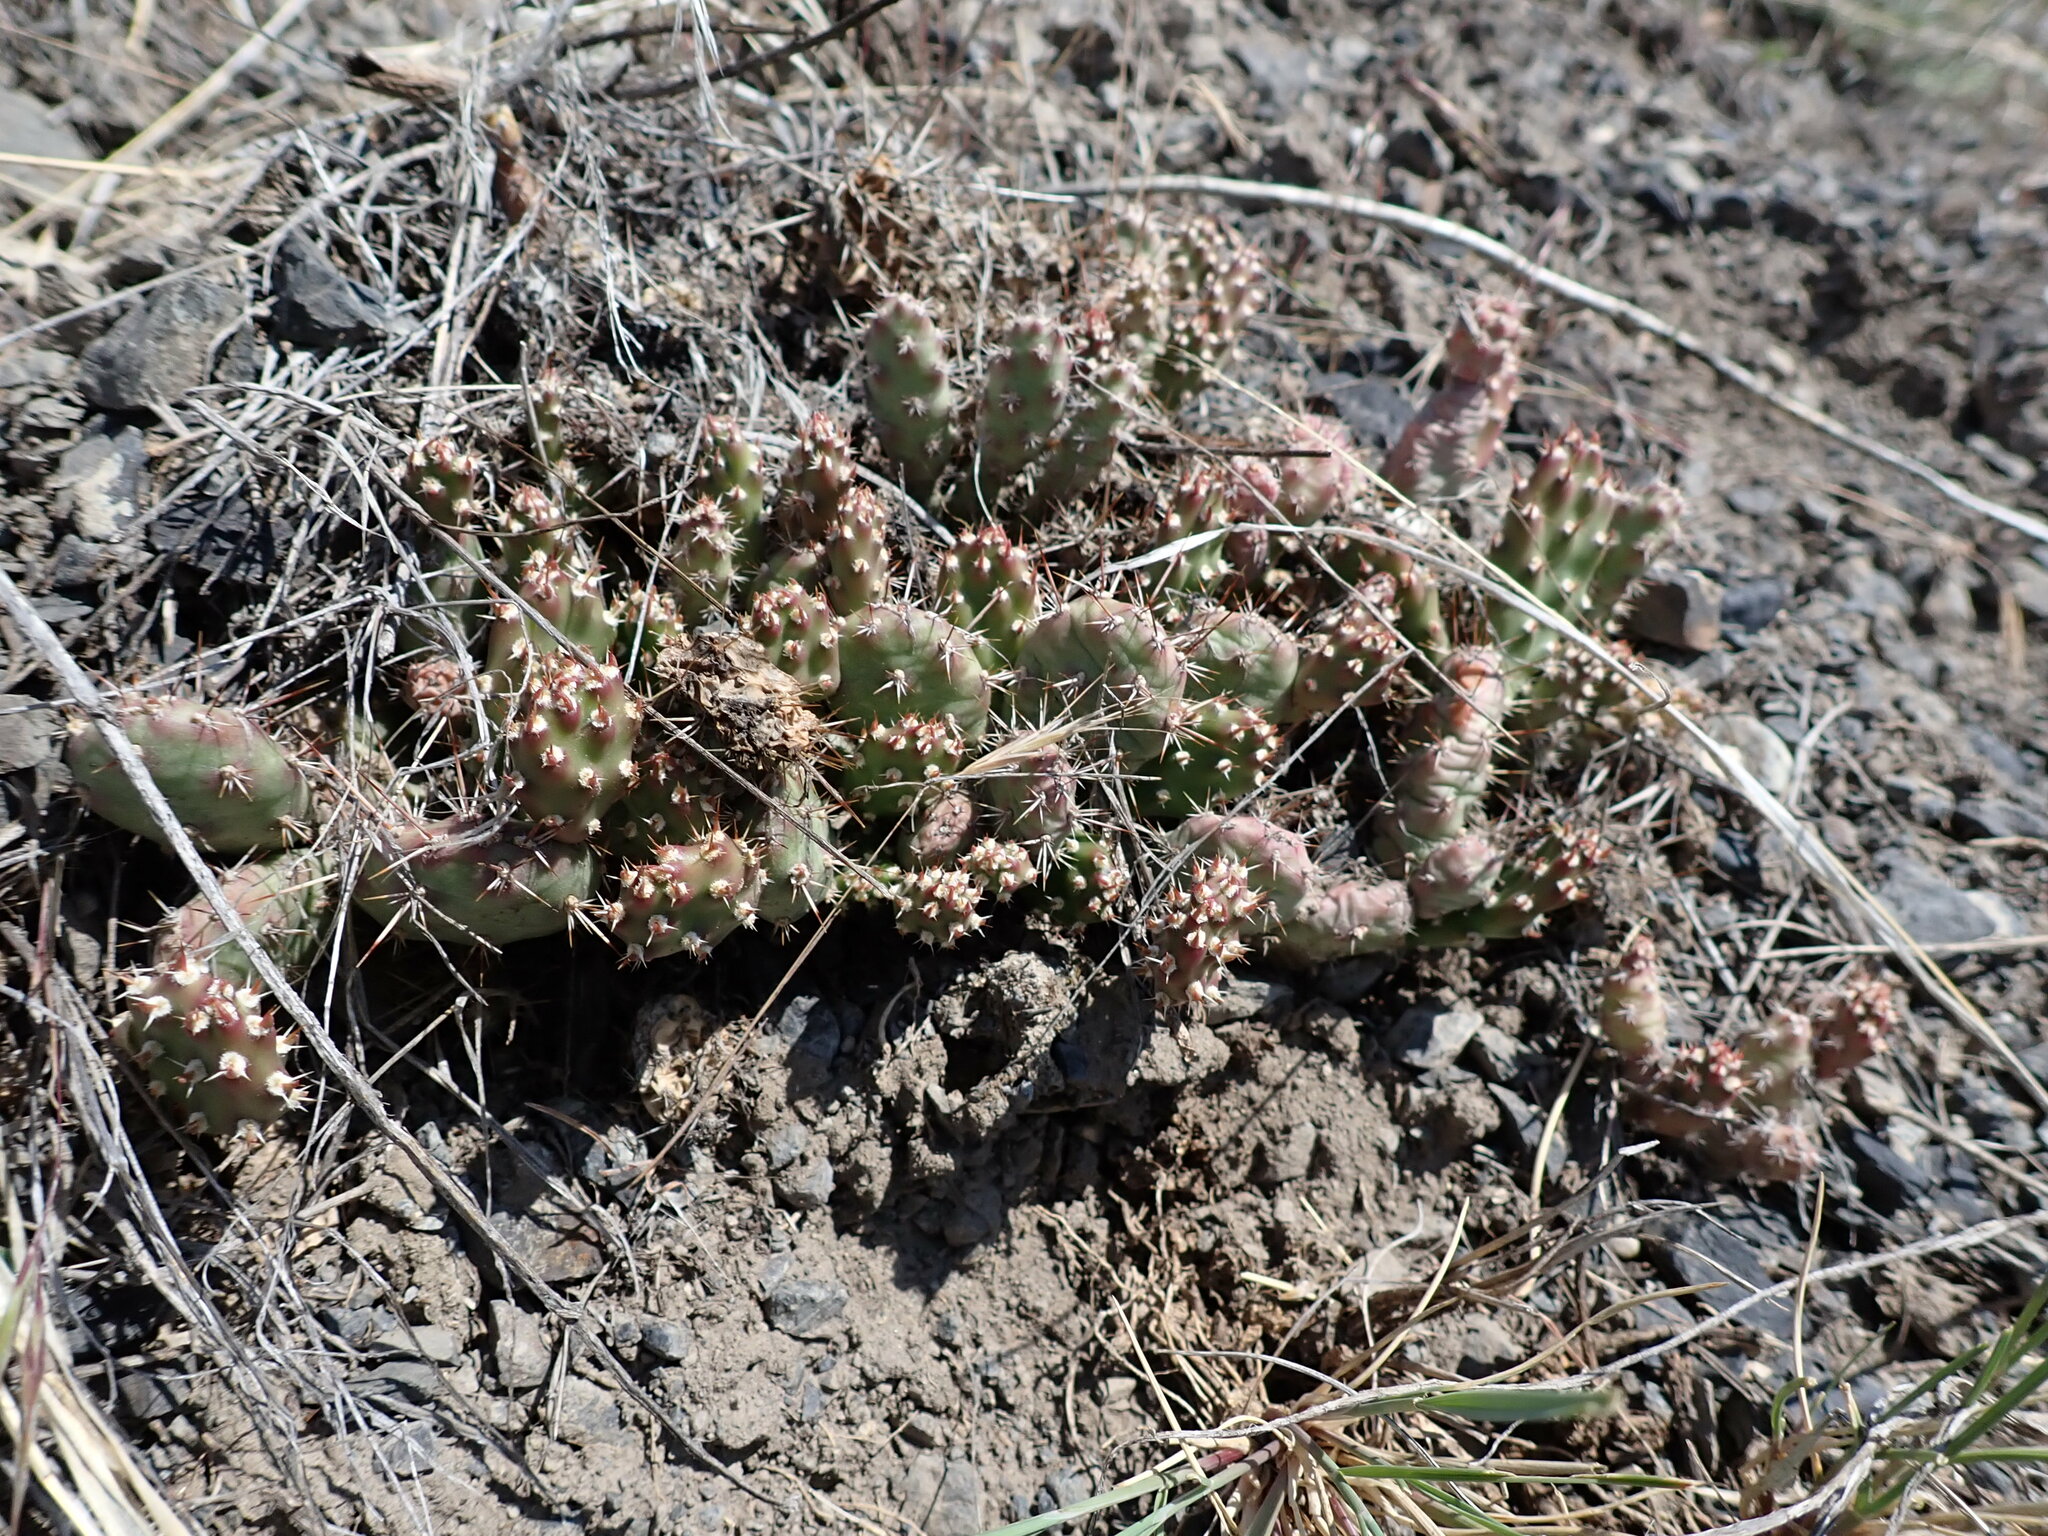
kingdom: Plantae
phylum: Tracheophyta
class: Magnoliopsida
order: Caryophyllales
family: Cactaceae
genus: Opuntia
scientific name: Opuntia fragilis
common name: Brittle cactus
